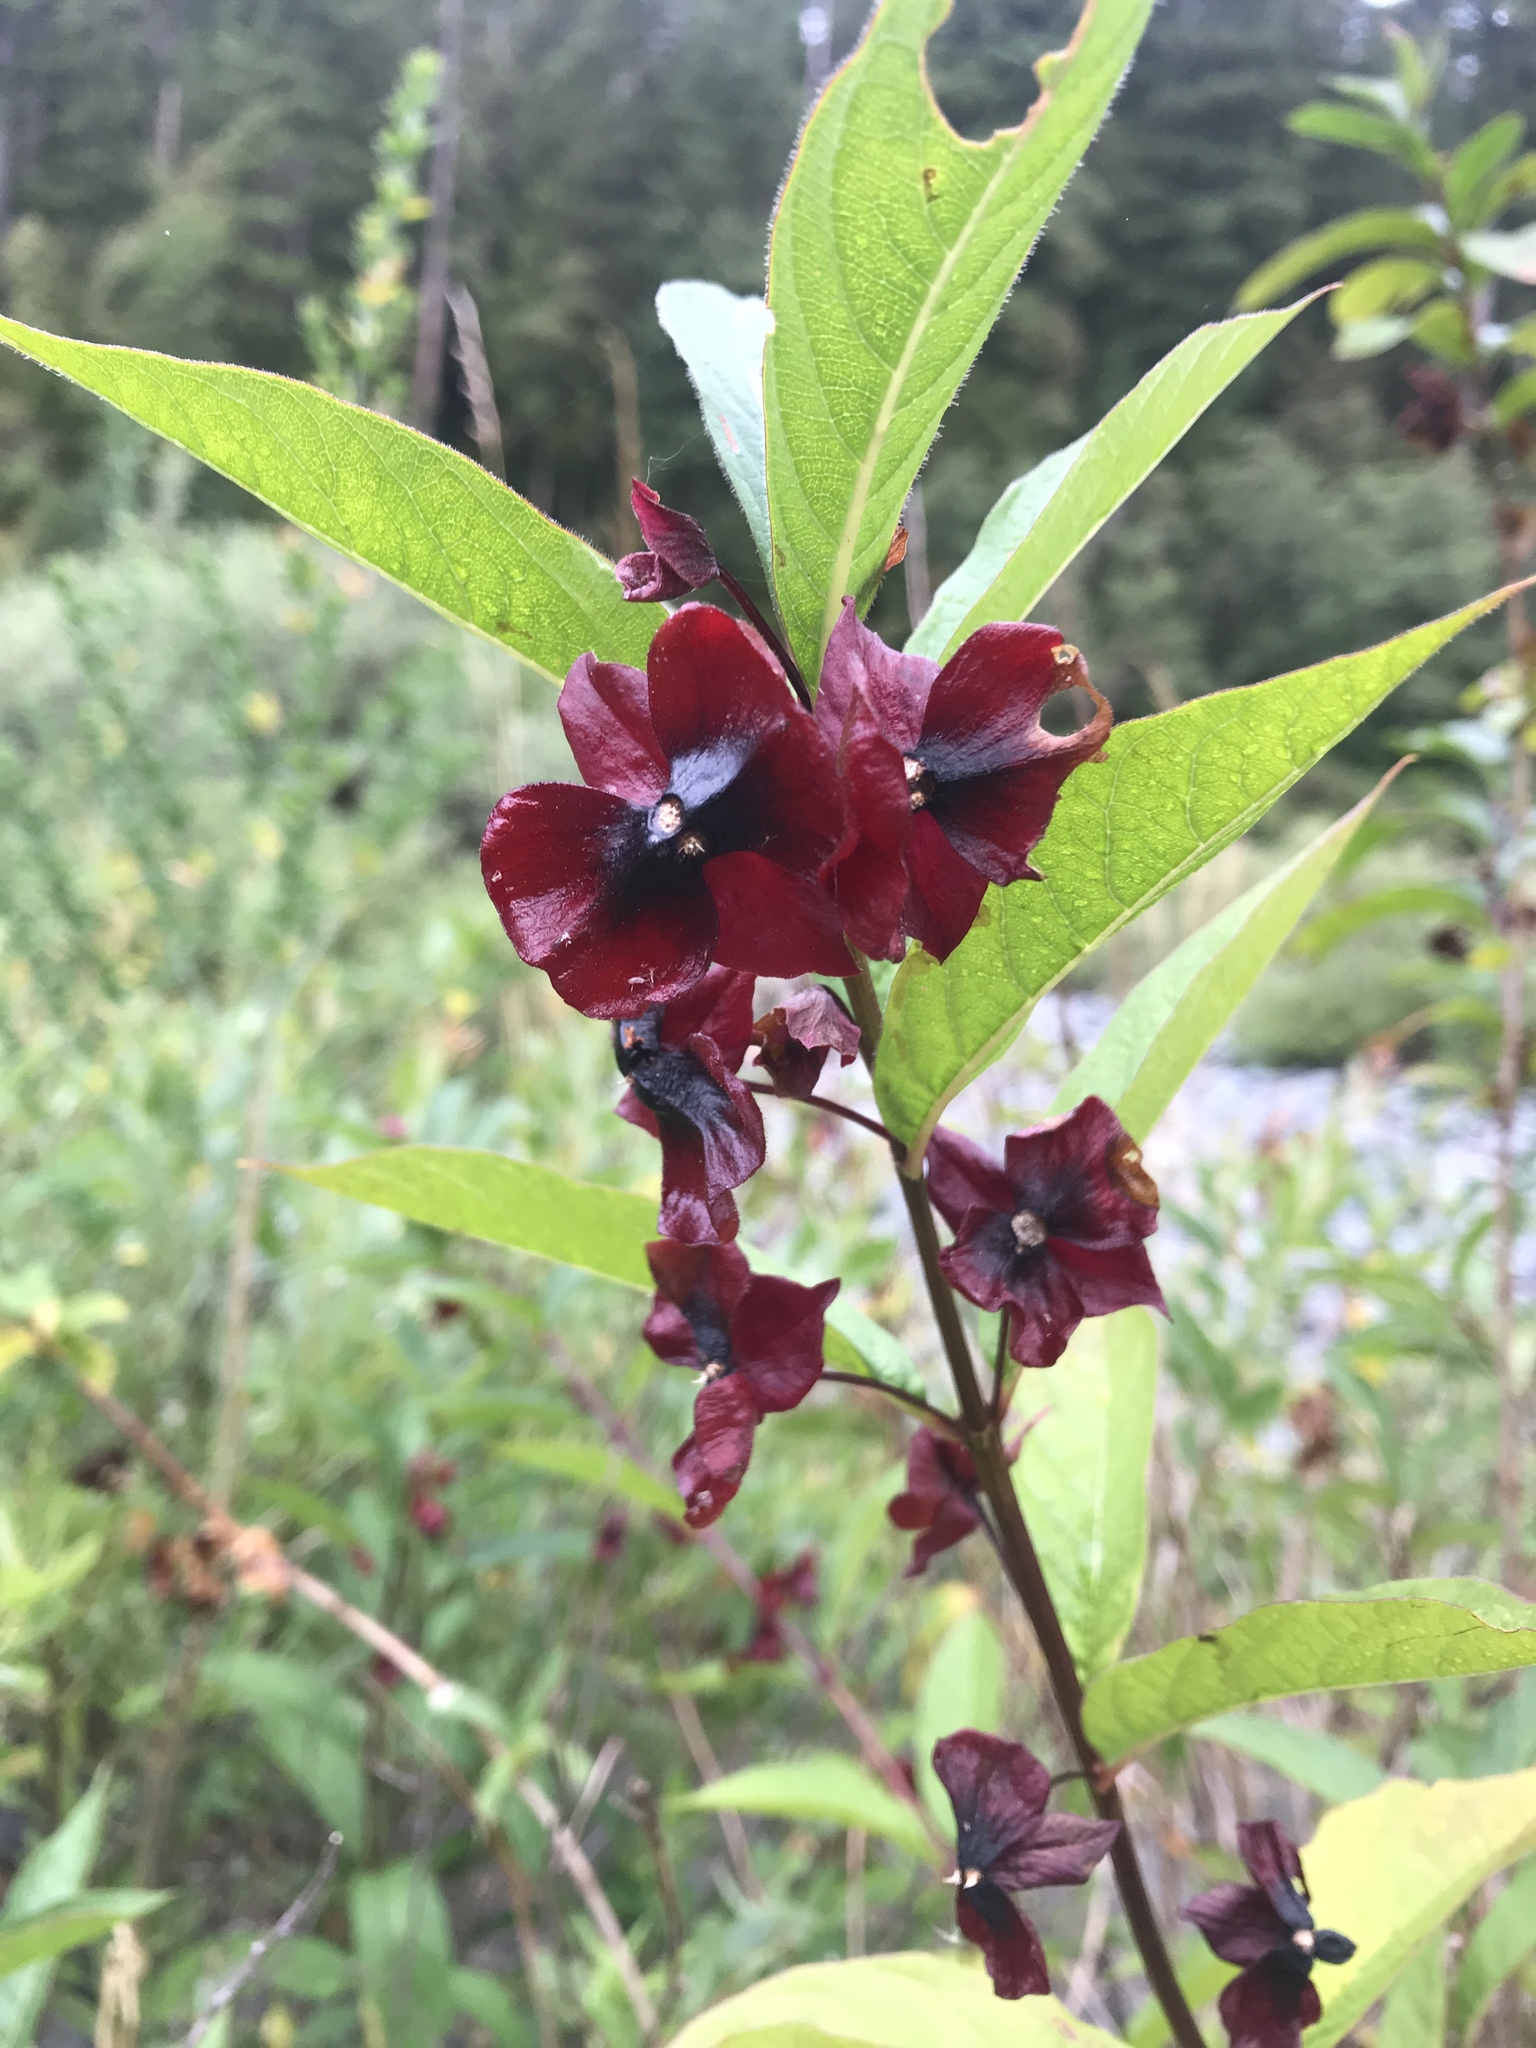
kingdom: Plantae
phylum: Tracheophyta
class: Magnoliopsida
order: Dipsacales
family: Caprifoliaceae
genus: Lonicera
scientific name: Lonicera involucrata
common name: Californian honeysuckle
